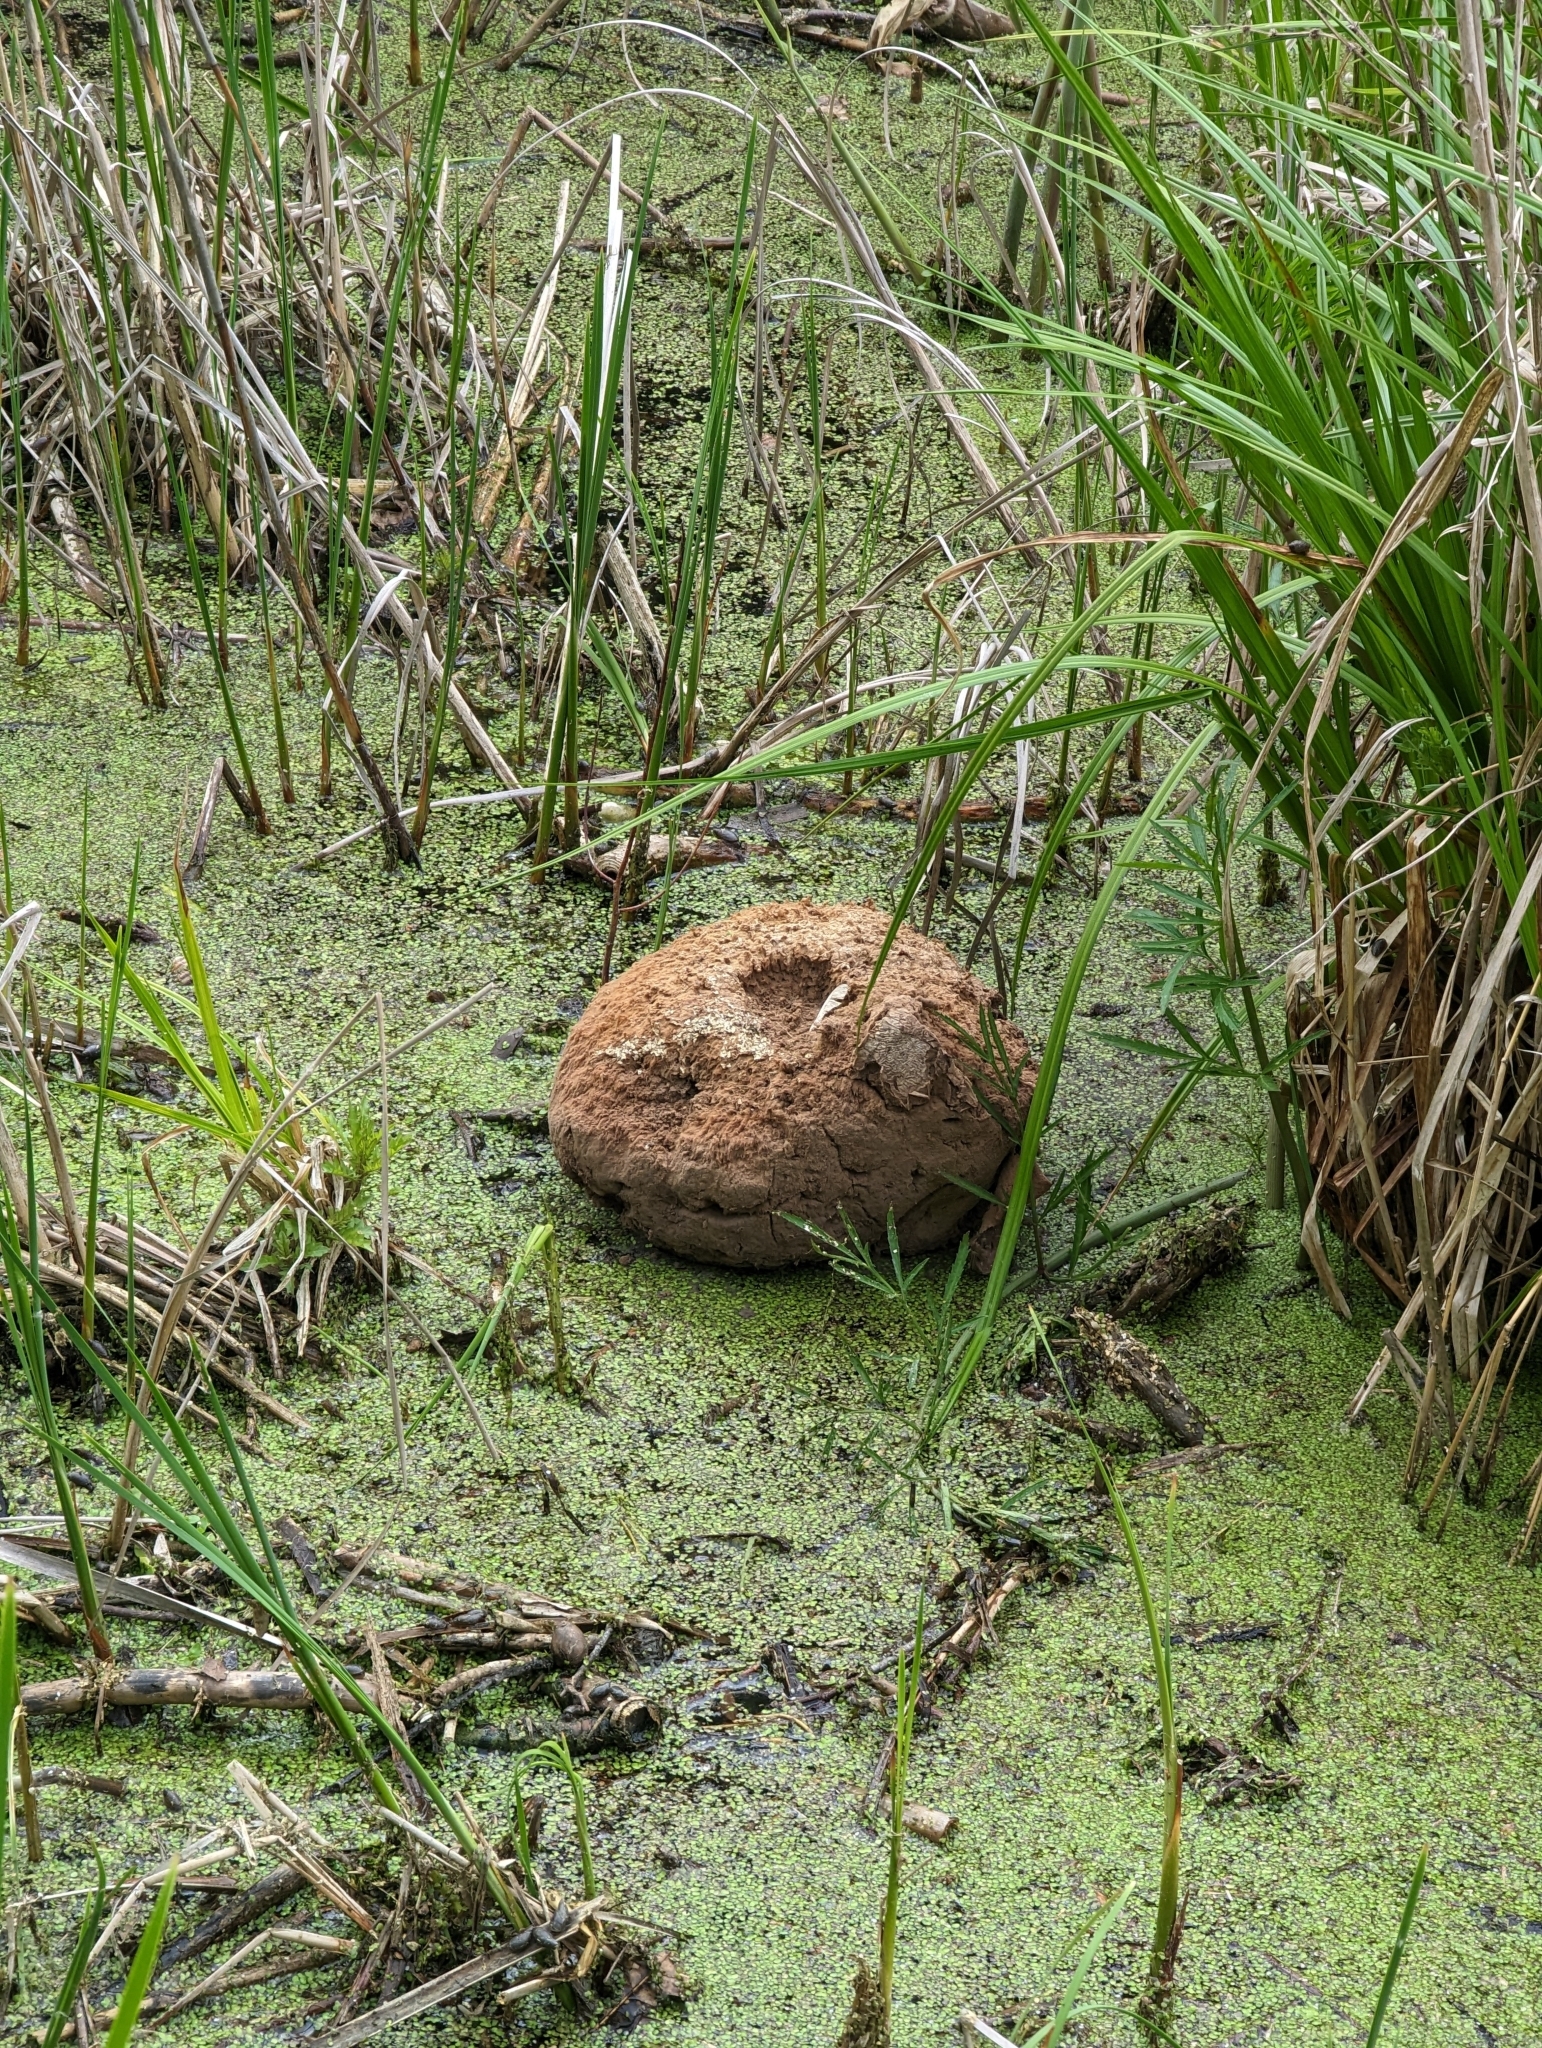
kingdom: Fungi
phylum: Basidiomycota
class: Agaricomycetes
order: Agaricales
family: Lycoperdaceae
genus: Calvatia
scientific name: Calvatia gigantea
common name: Giant puffball
